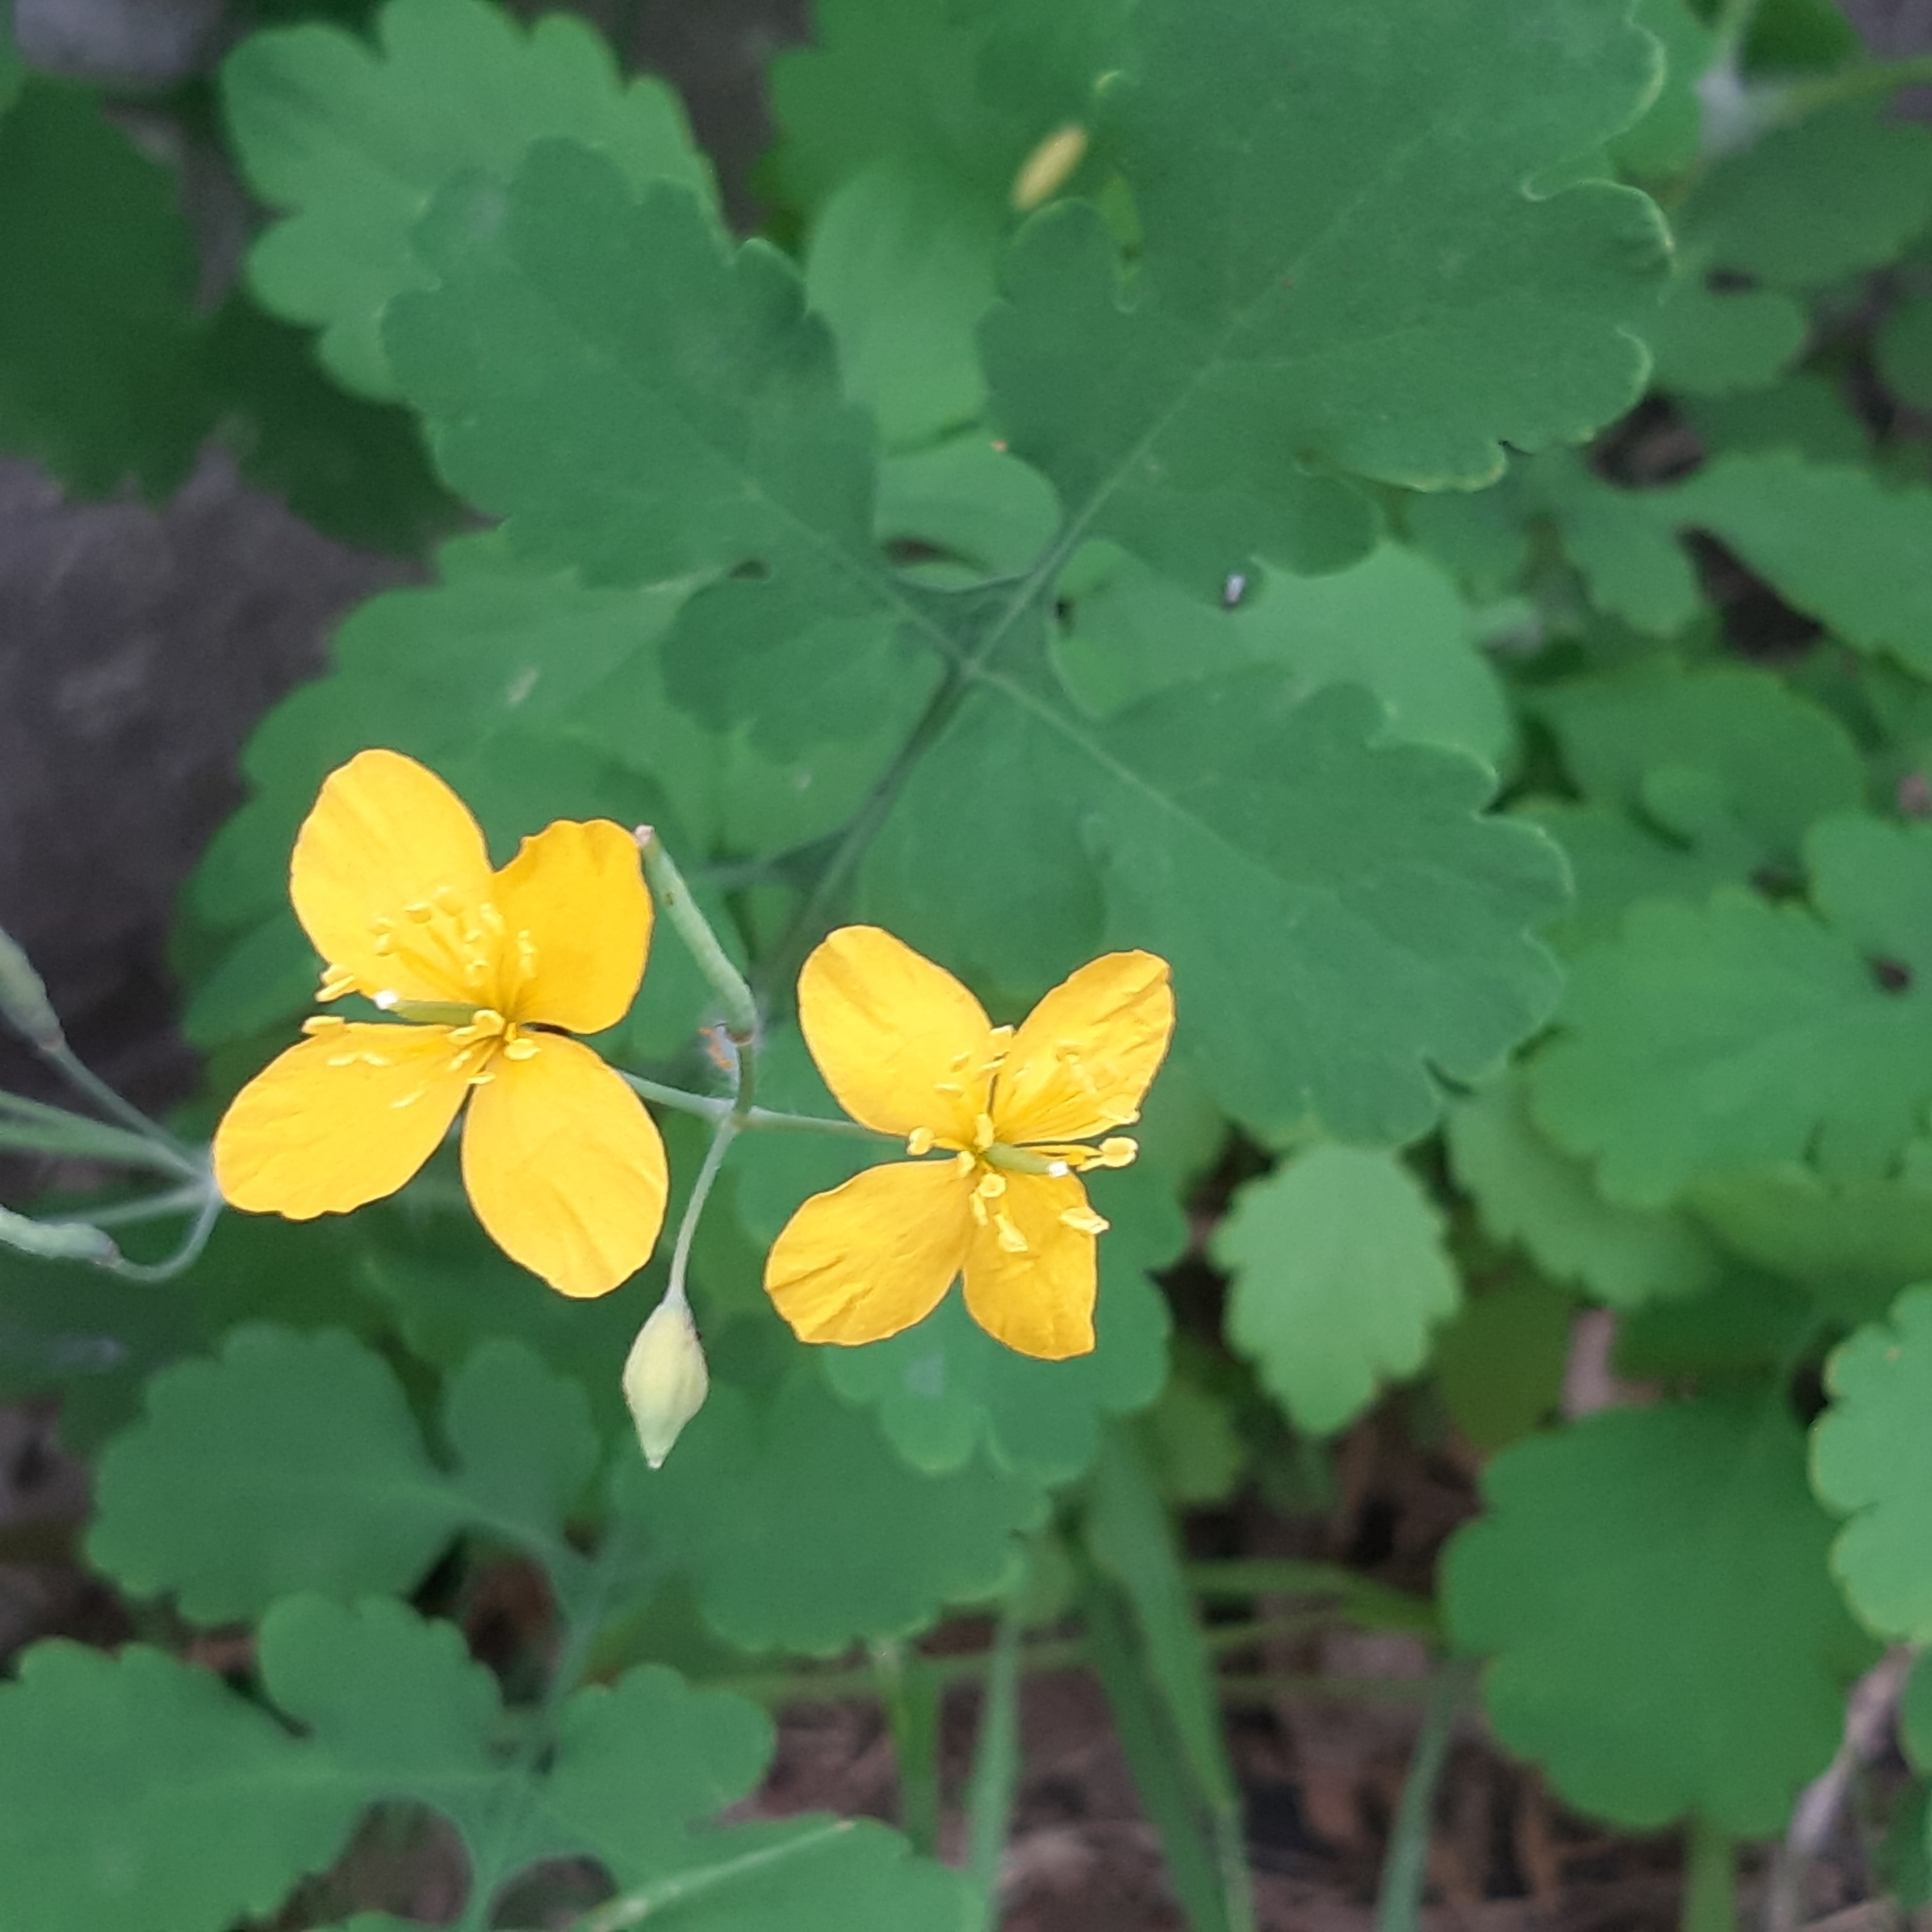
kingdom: Plantae
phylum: Tracheophyta
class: Magnoliopsida
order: Ranunculales
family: Papaveraceae
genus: Chelidonium
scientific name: Chelidonium majus
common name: Greater celandine
